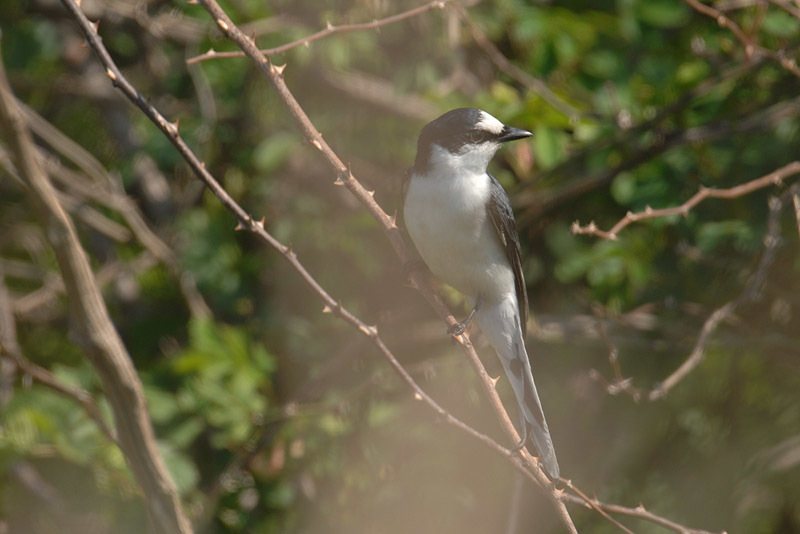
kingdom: Animalia
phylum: Chordata
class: Aves
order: Passeriformes
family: Campephagidae
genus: Pericrocotus
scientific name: Pericrocotus divaricatus
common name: Ashy minivet
